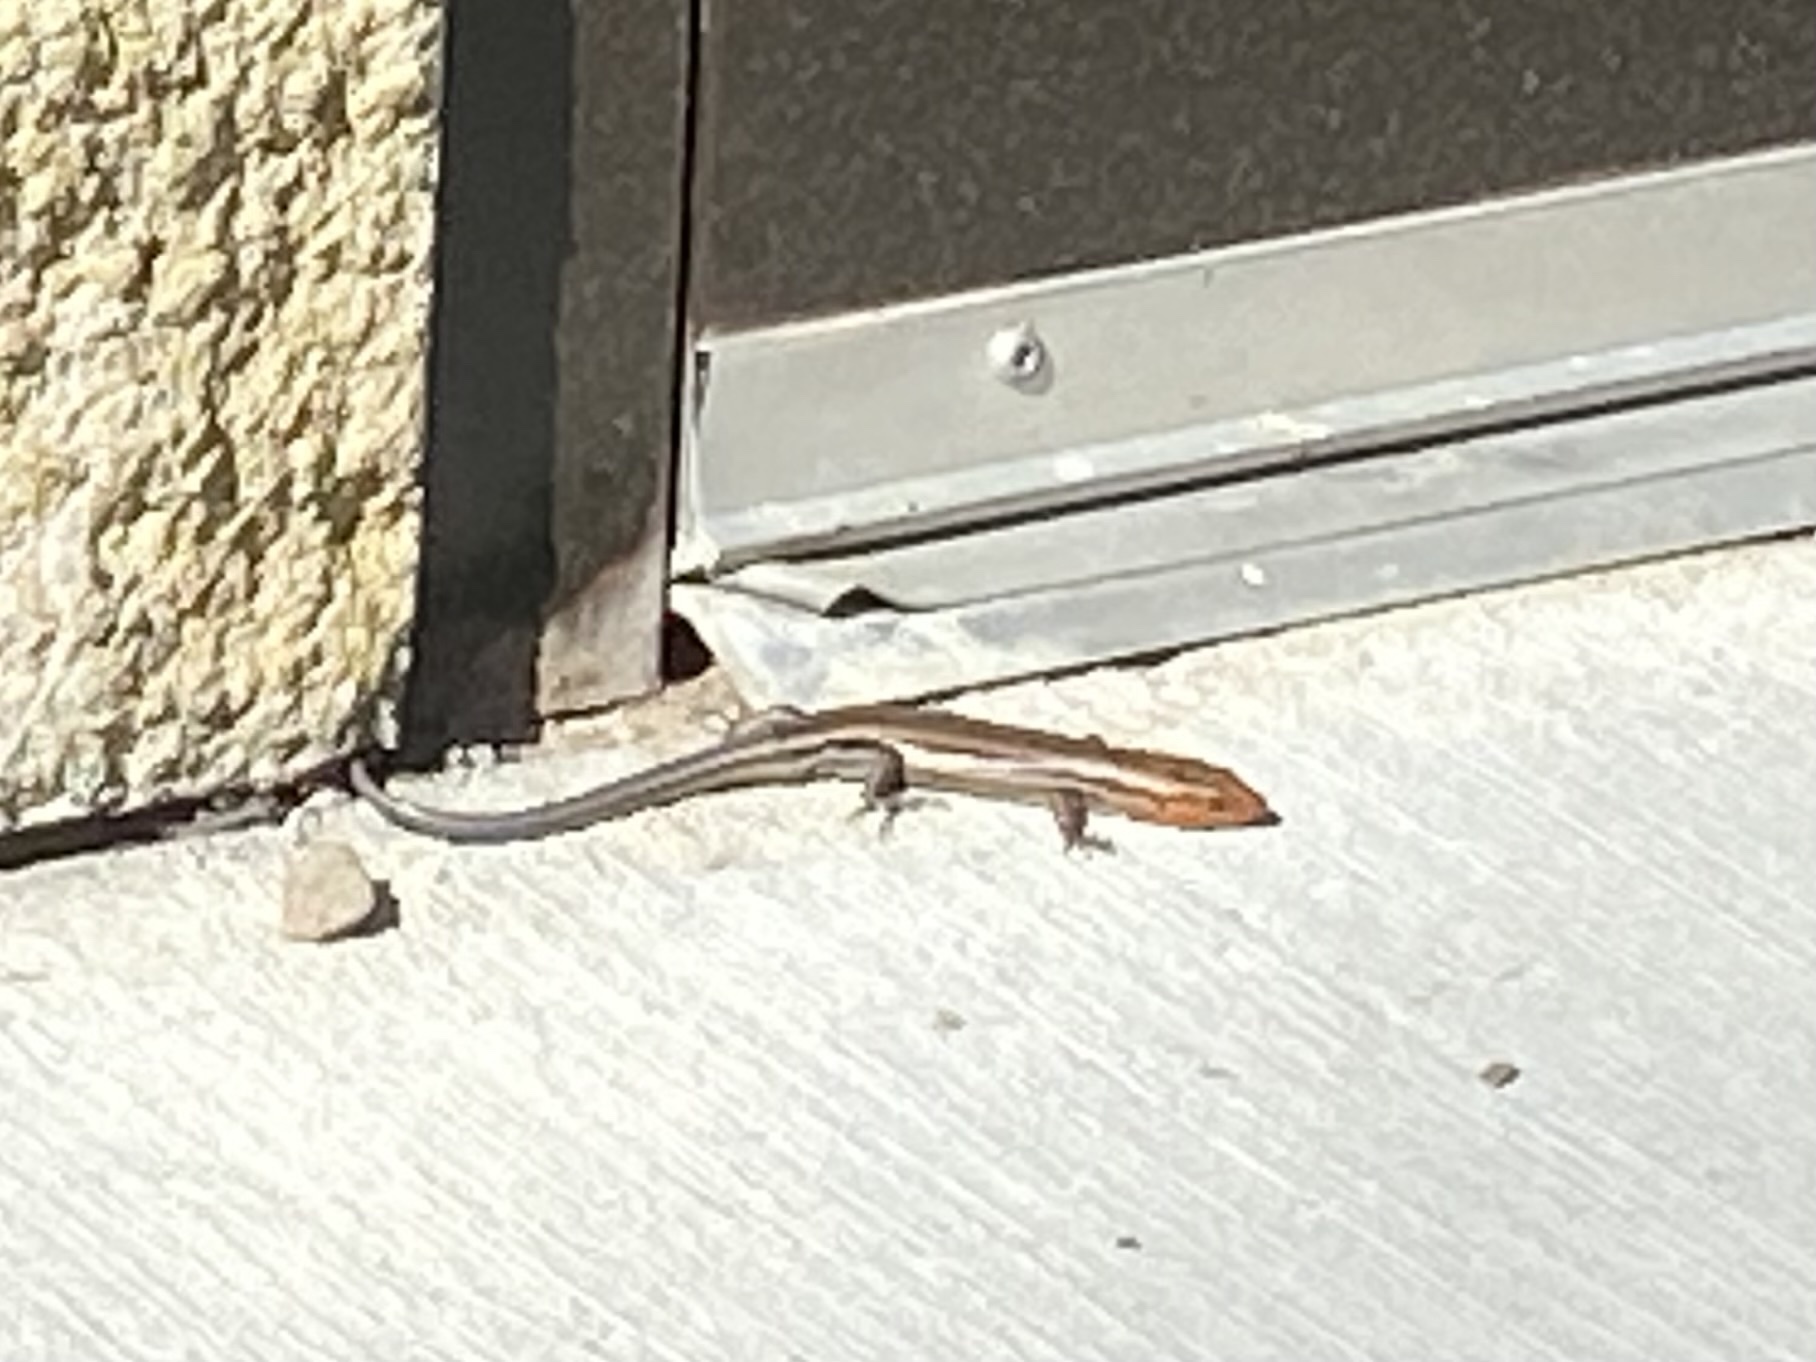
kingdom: Animalia
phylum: Chordata
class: Squamata
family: Scincidae
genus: Plestiodon
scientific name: Plestiodon fasciatus
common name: Five-lined skink
